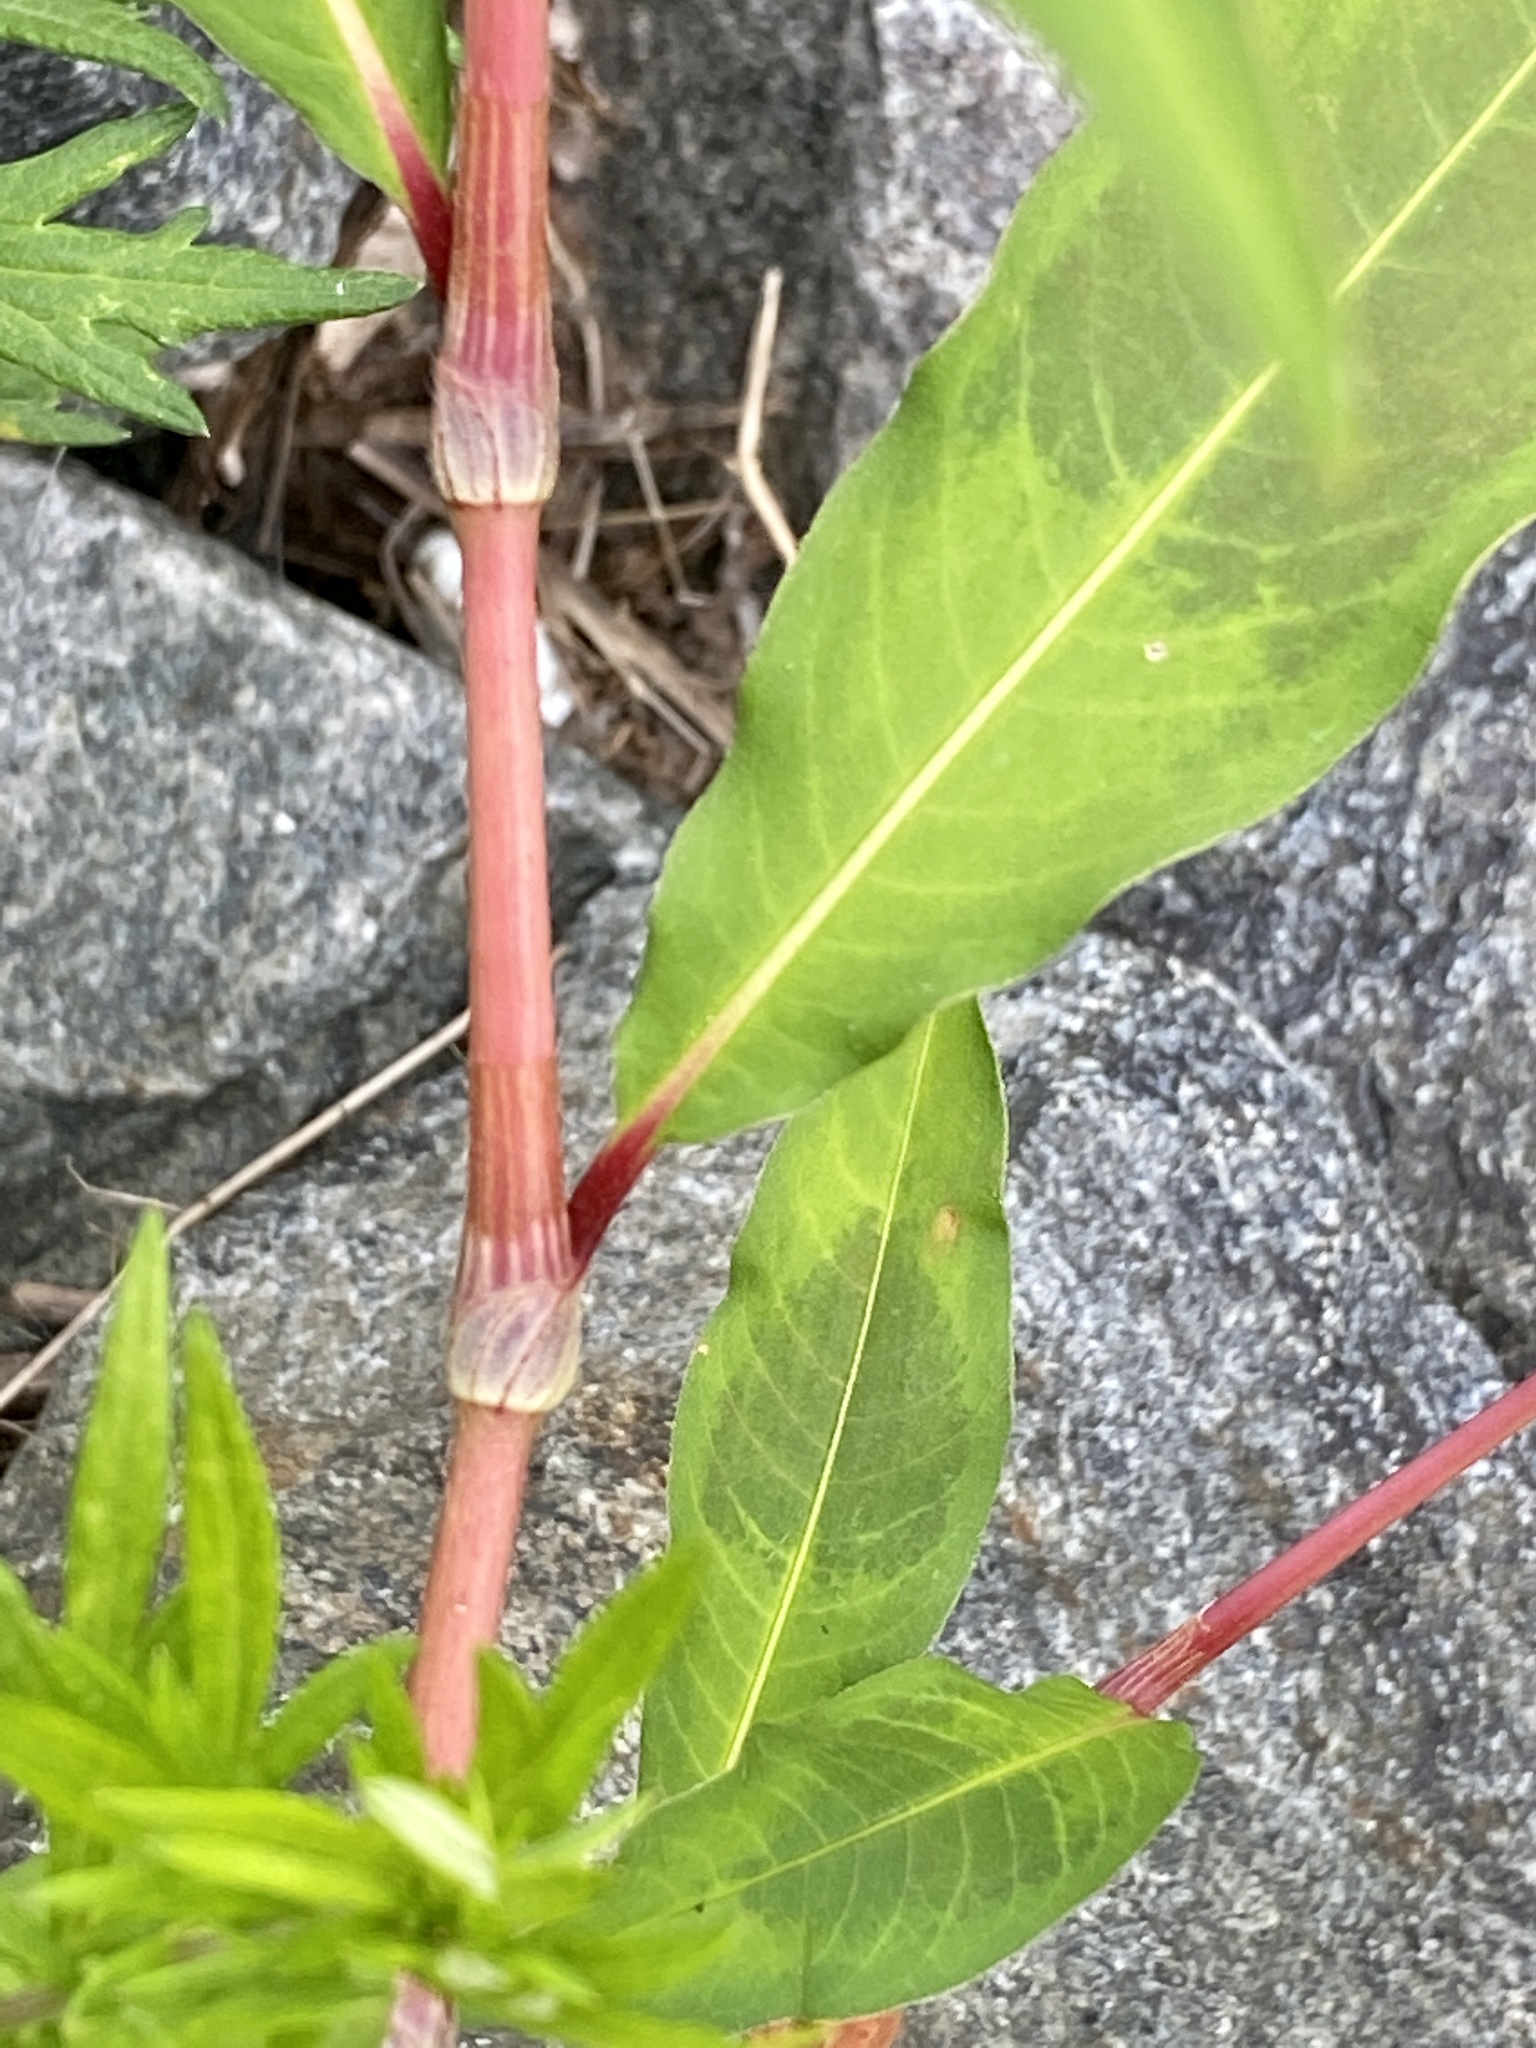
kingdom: Plantae
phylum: Tracheophyta
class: Magnoliopsida
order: Caryophyllales
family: Polygonaceae
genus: Persicaria
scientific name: Persicaria extremiorientalis
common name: Far-eastern smartweed
